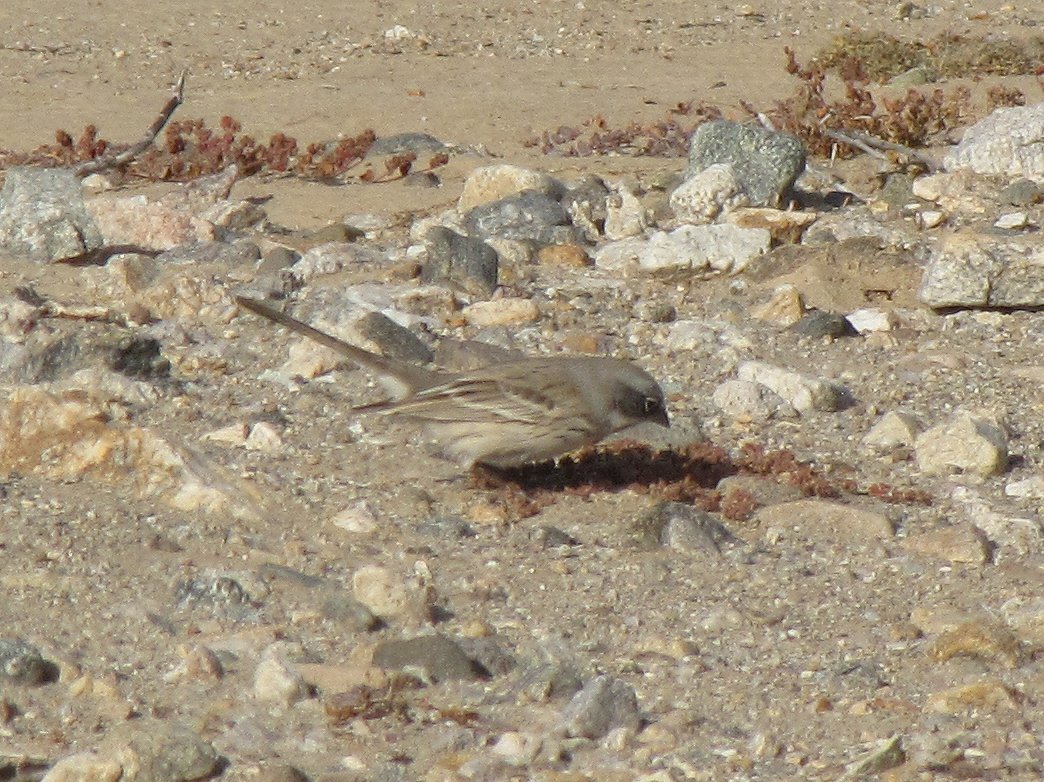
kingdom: Animalia
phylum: Chordata
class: Aves
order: Passeriformes
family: Passerellidae
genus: Artemisiospiza
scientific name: Artemisiospiza nevadensis
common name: Sagebrush sparrow
